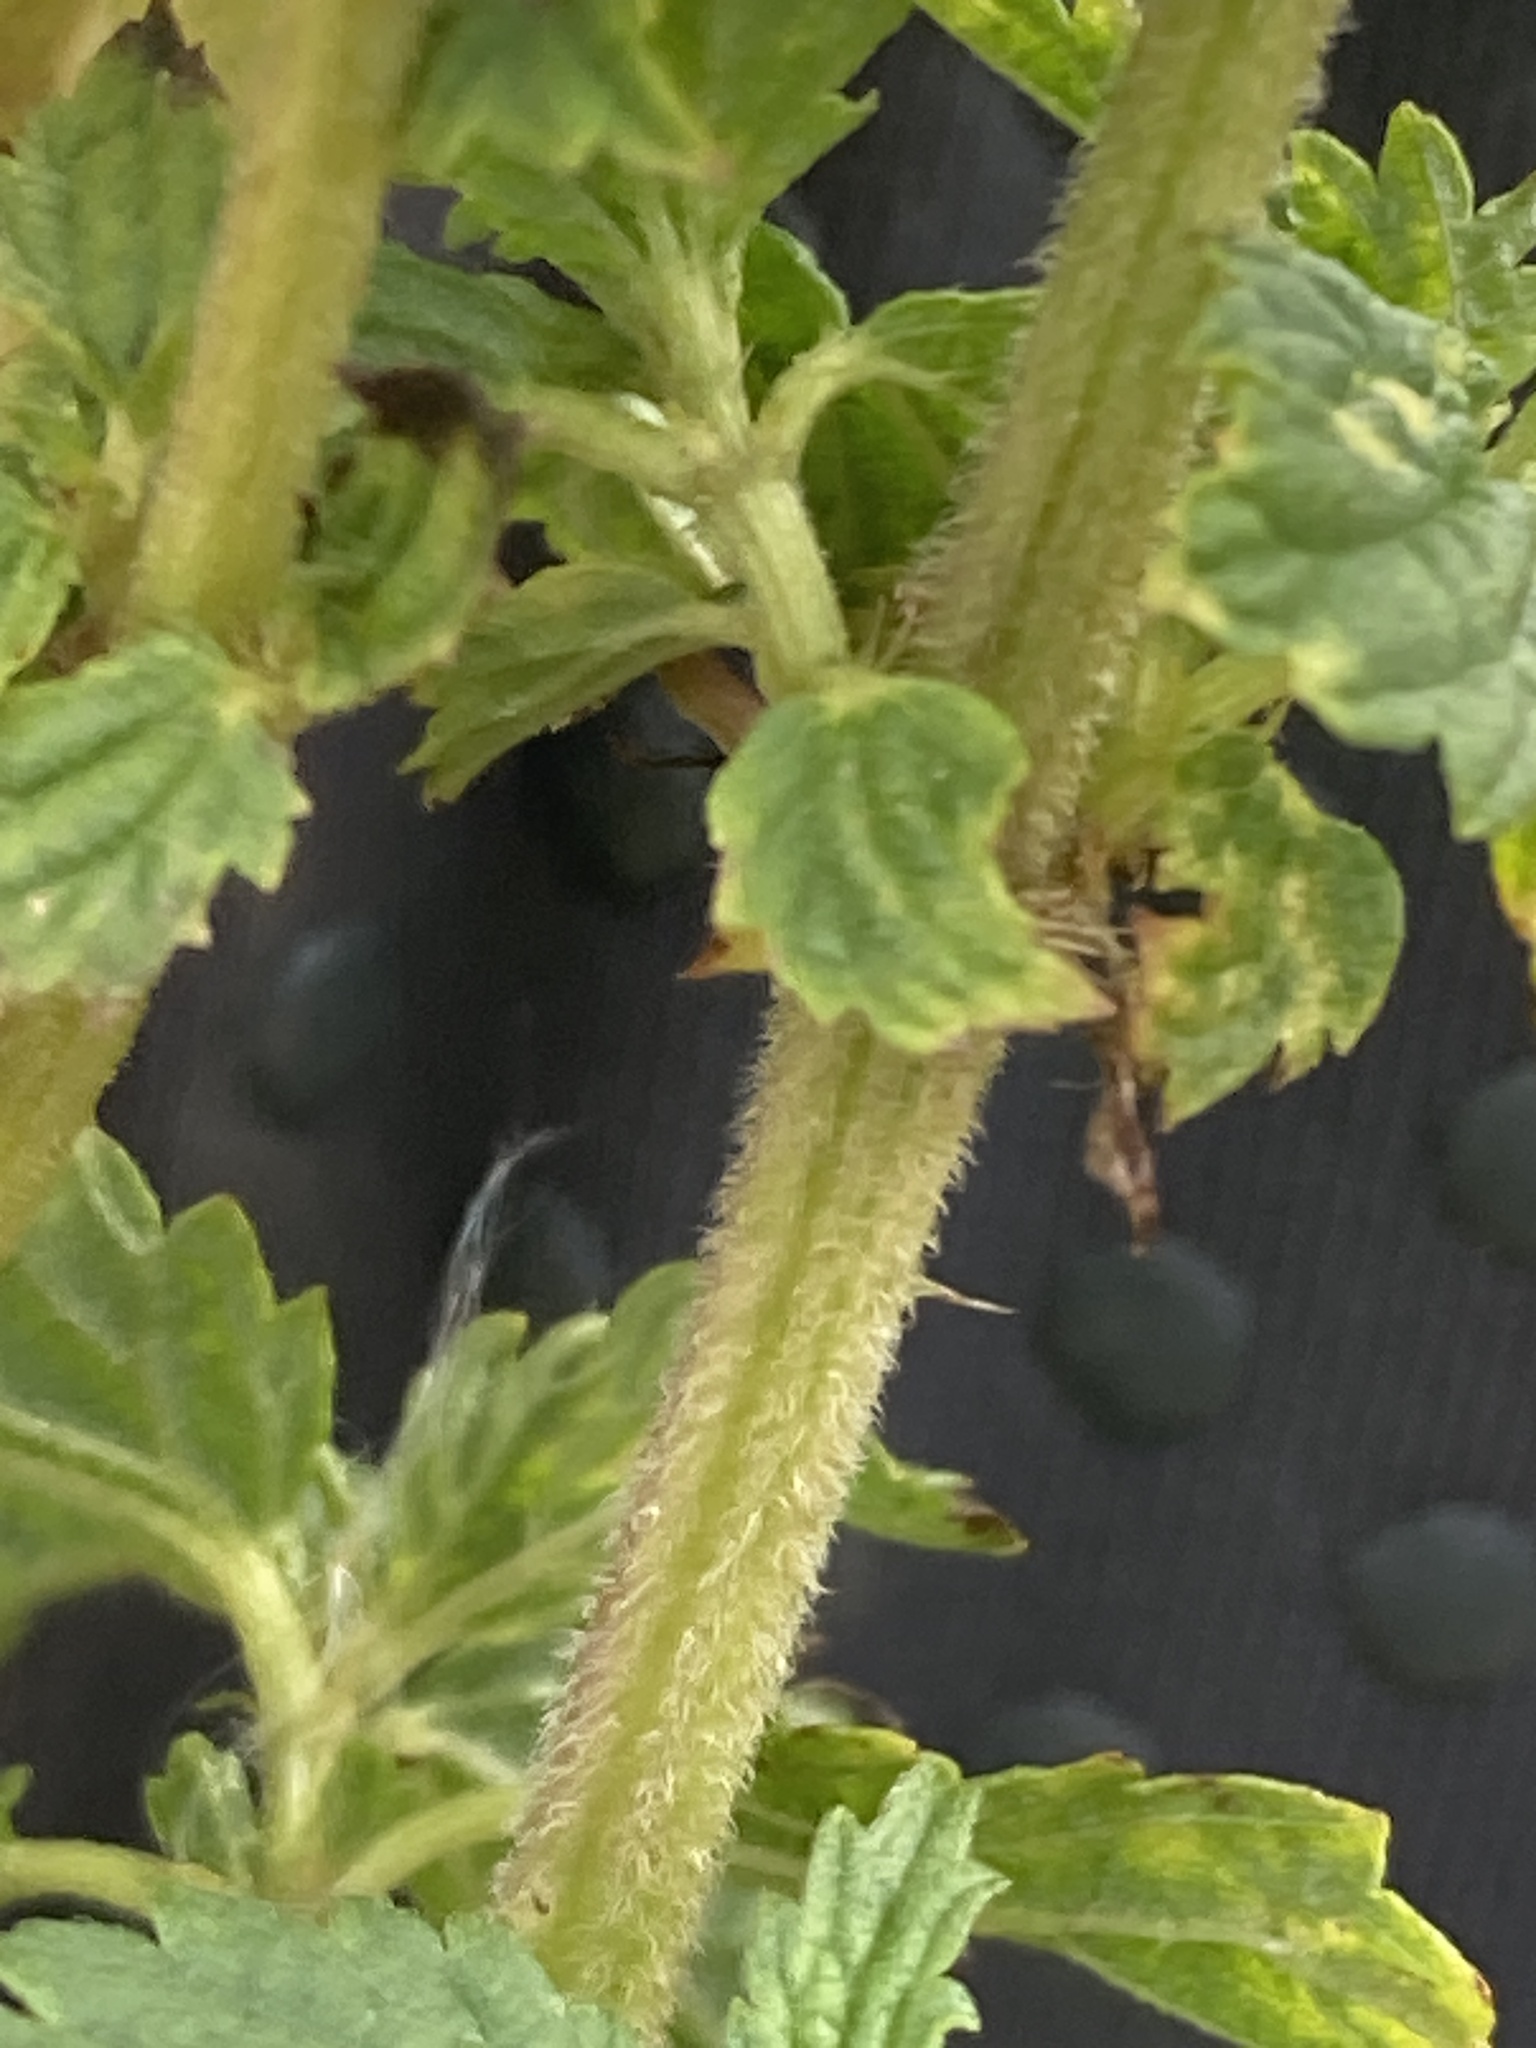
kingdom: Plantae
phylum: Tracheophyta
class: Magnoliopsida
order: Rosales
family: Urticaceae
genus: Urtica
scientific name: Urtica dioica
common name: Common nettle
